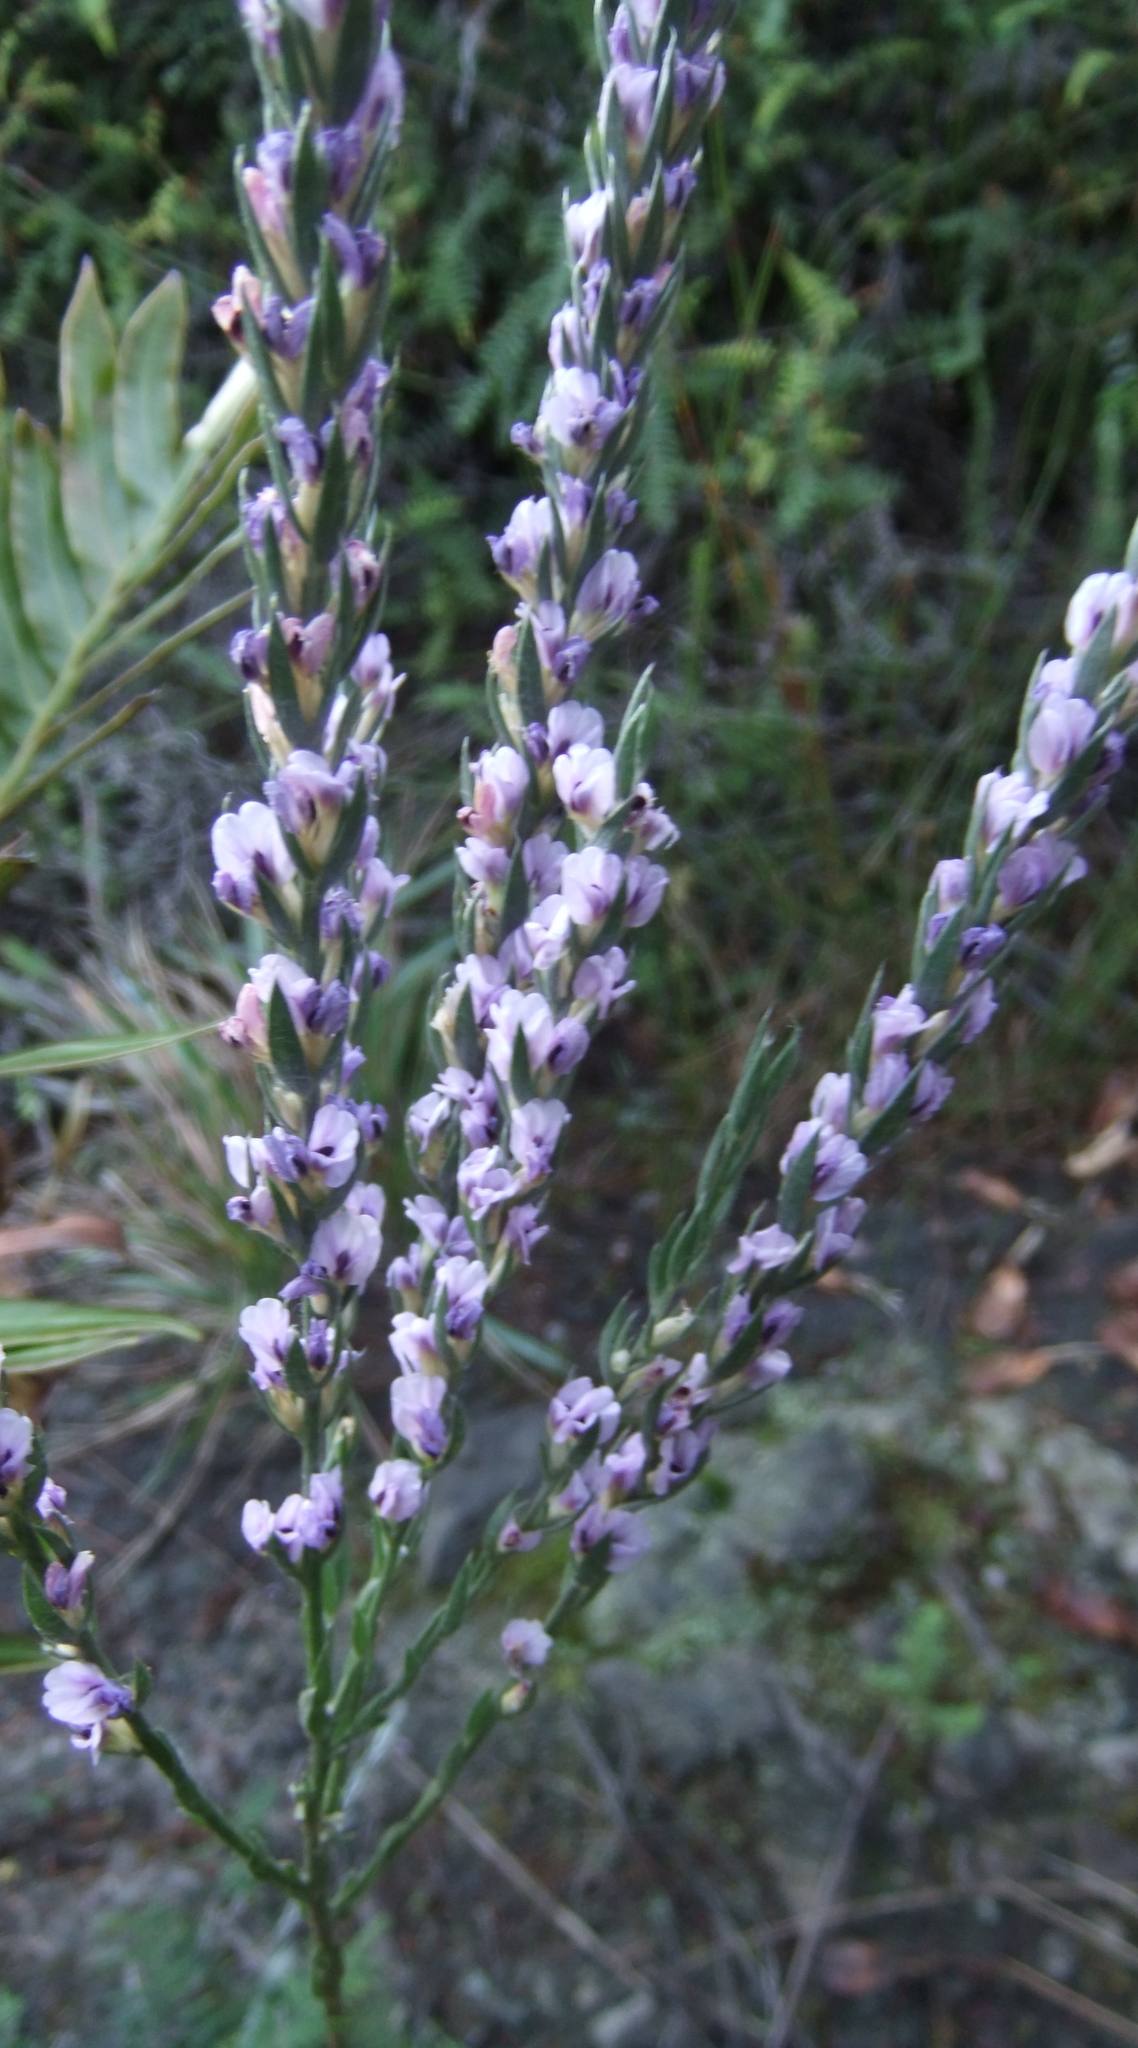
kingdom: Plantae
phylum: Tracheophyta
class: Magnoliopsida
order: Fabales
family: Fabaceae
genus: Amphithalea
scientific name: Amphithalea axillaris
